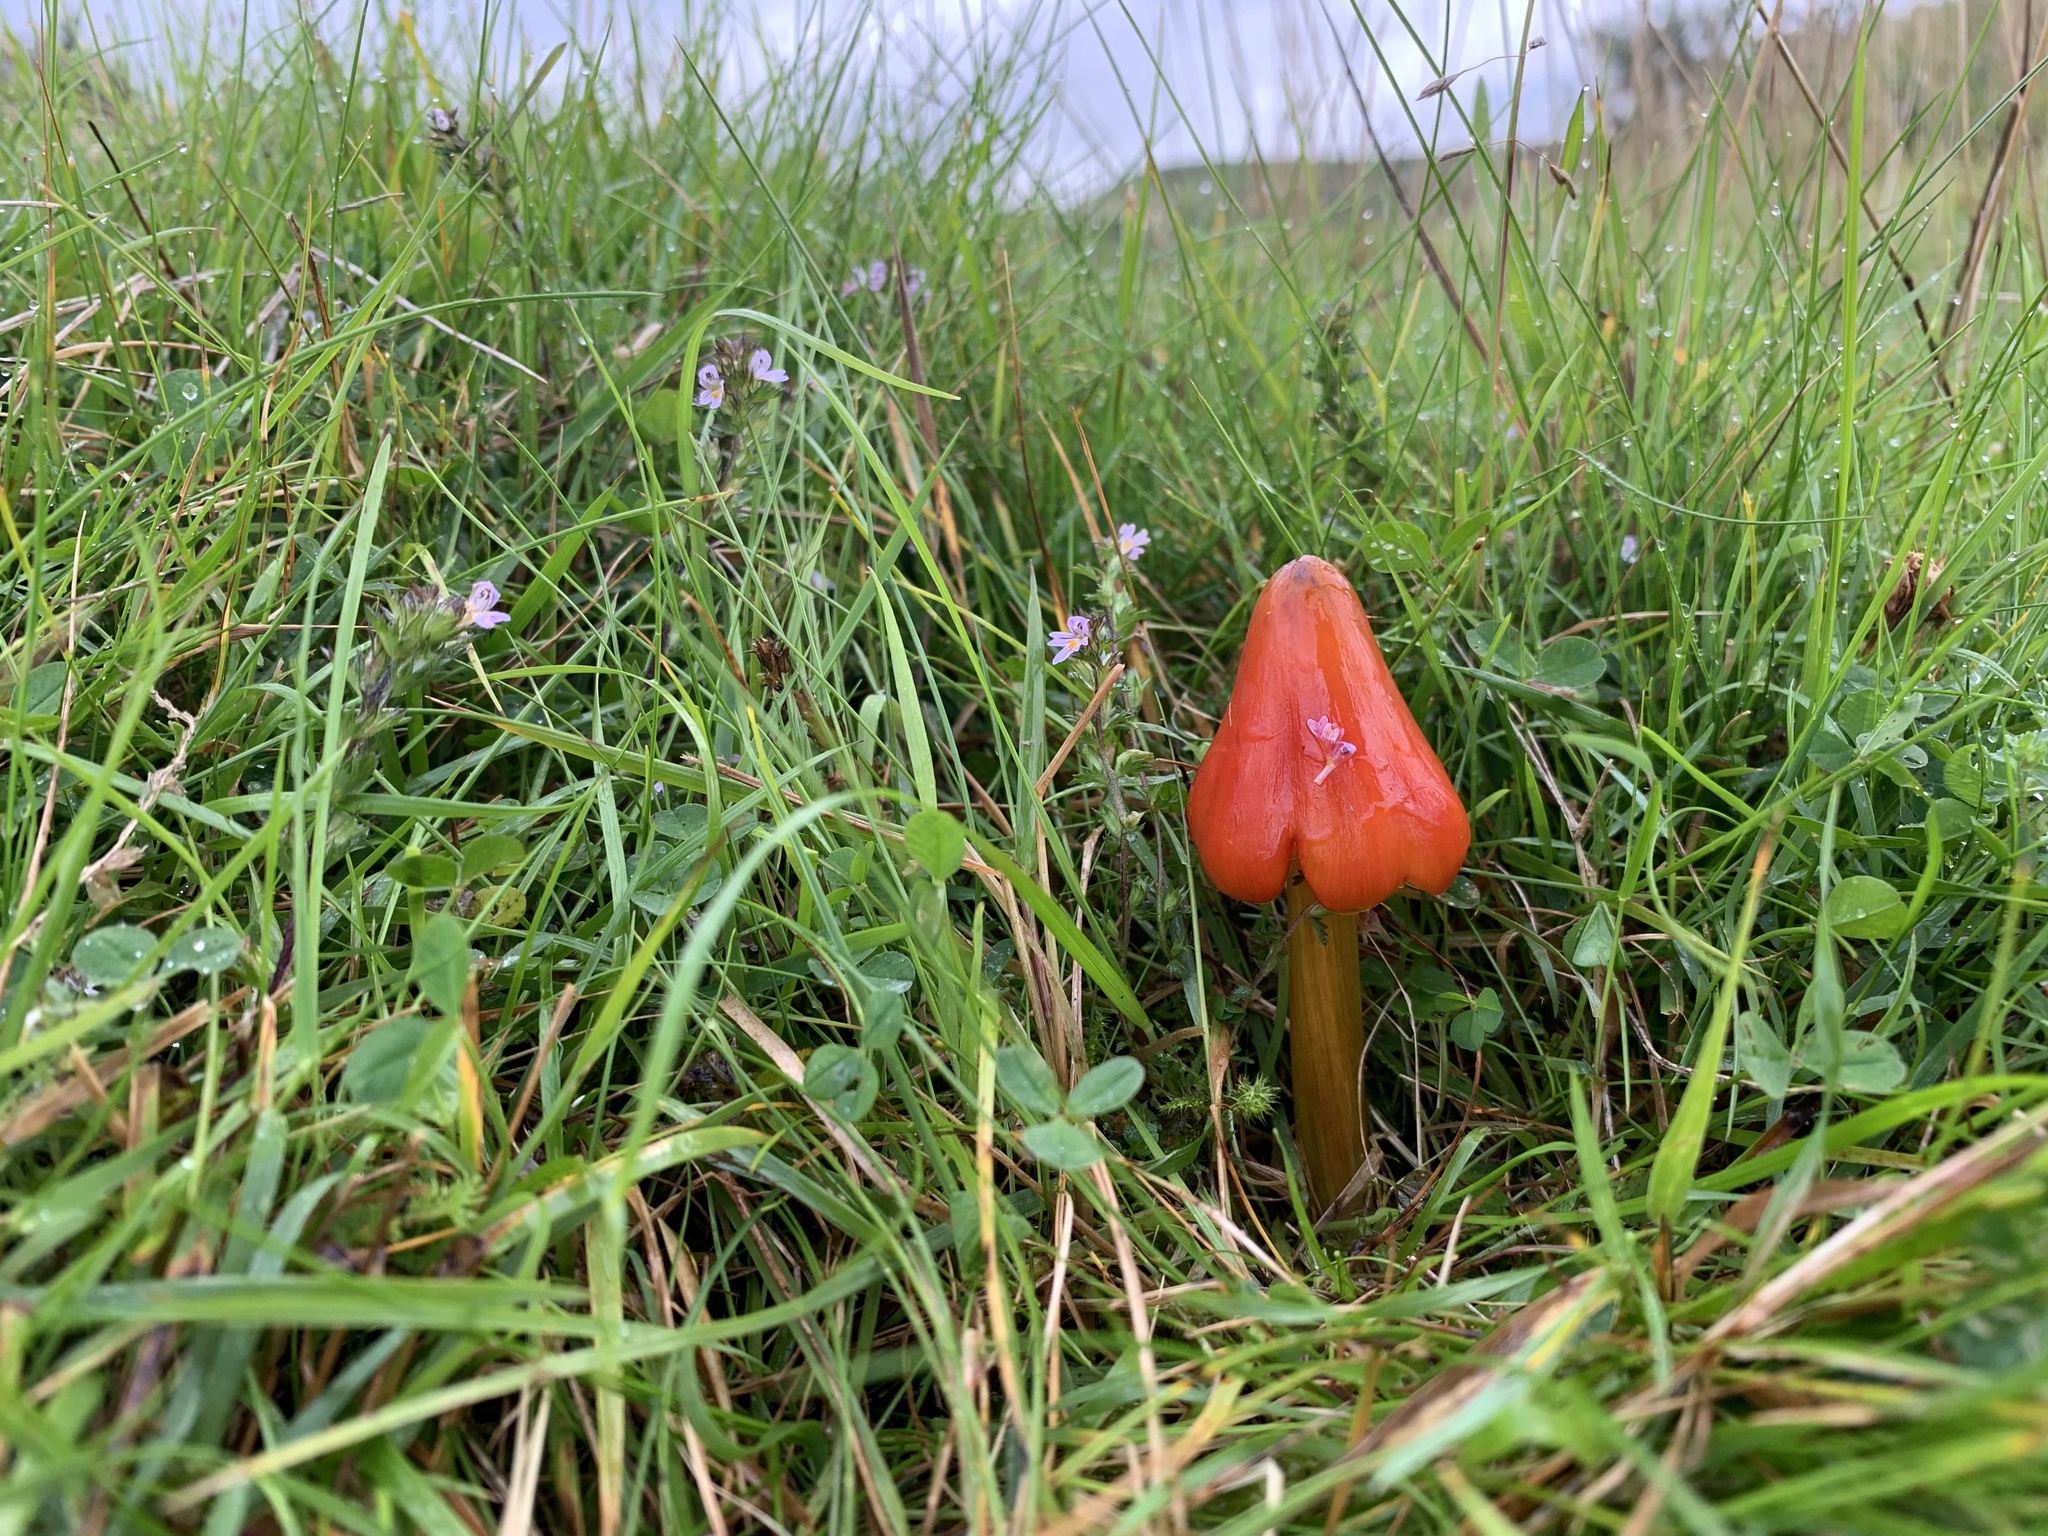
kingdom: Fungi
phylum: Basidiomycota
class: Agaricomycetes
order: Agaricales
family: Hygrophoraceae
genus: Hygrocybe
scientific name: Hygrocybe conica
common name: Blackening wax-cap
